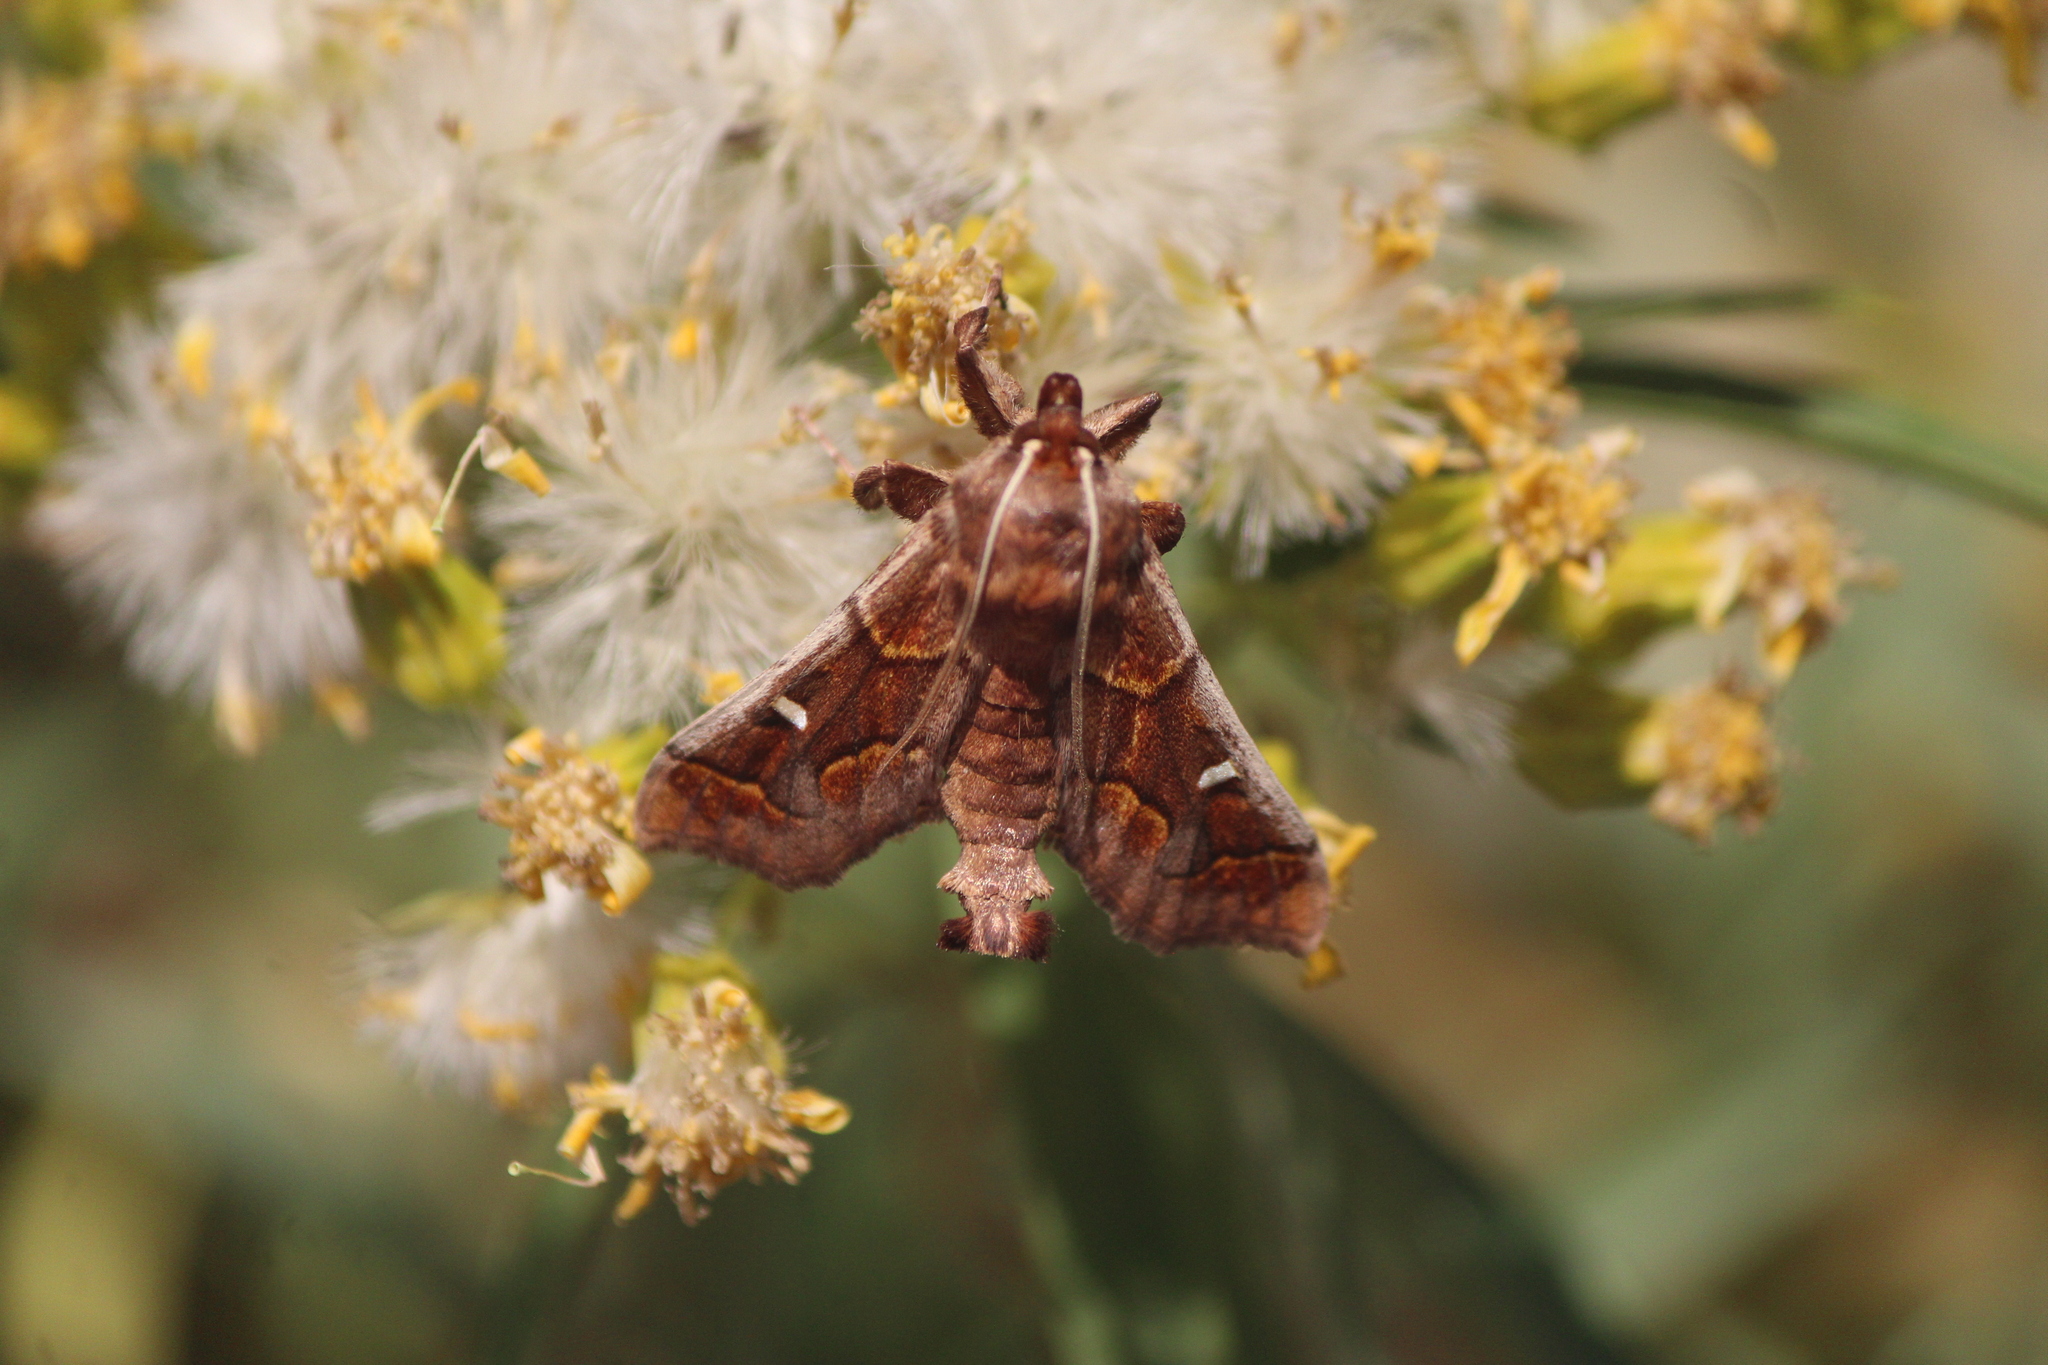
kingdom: Animalia
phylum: Arthropoda
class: Insecta
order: Lepidoptera
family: Crambidae
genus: Polygrammodes
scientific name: Polygrammodes cyamon
